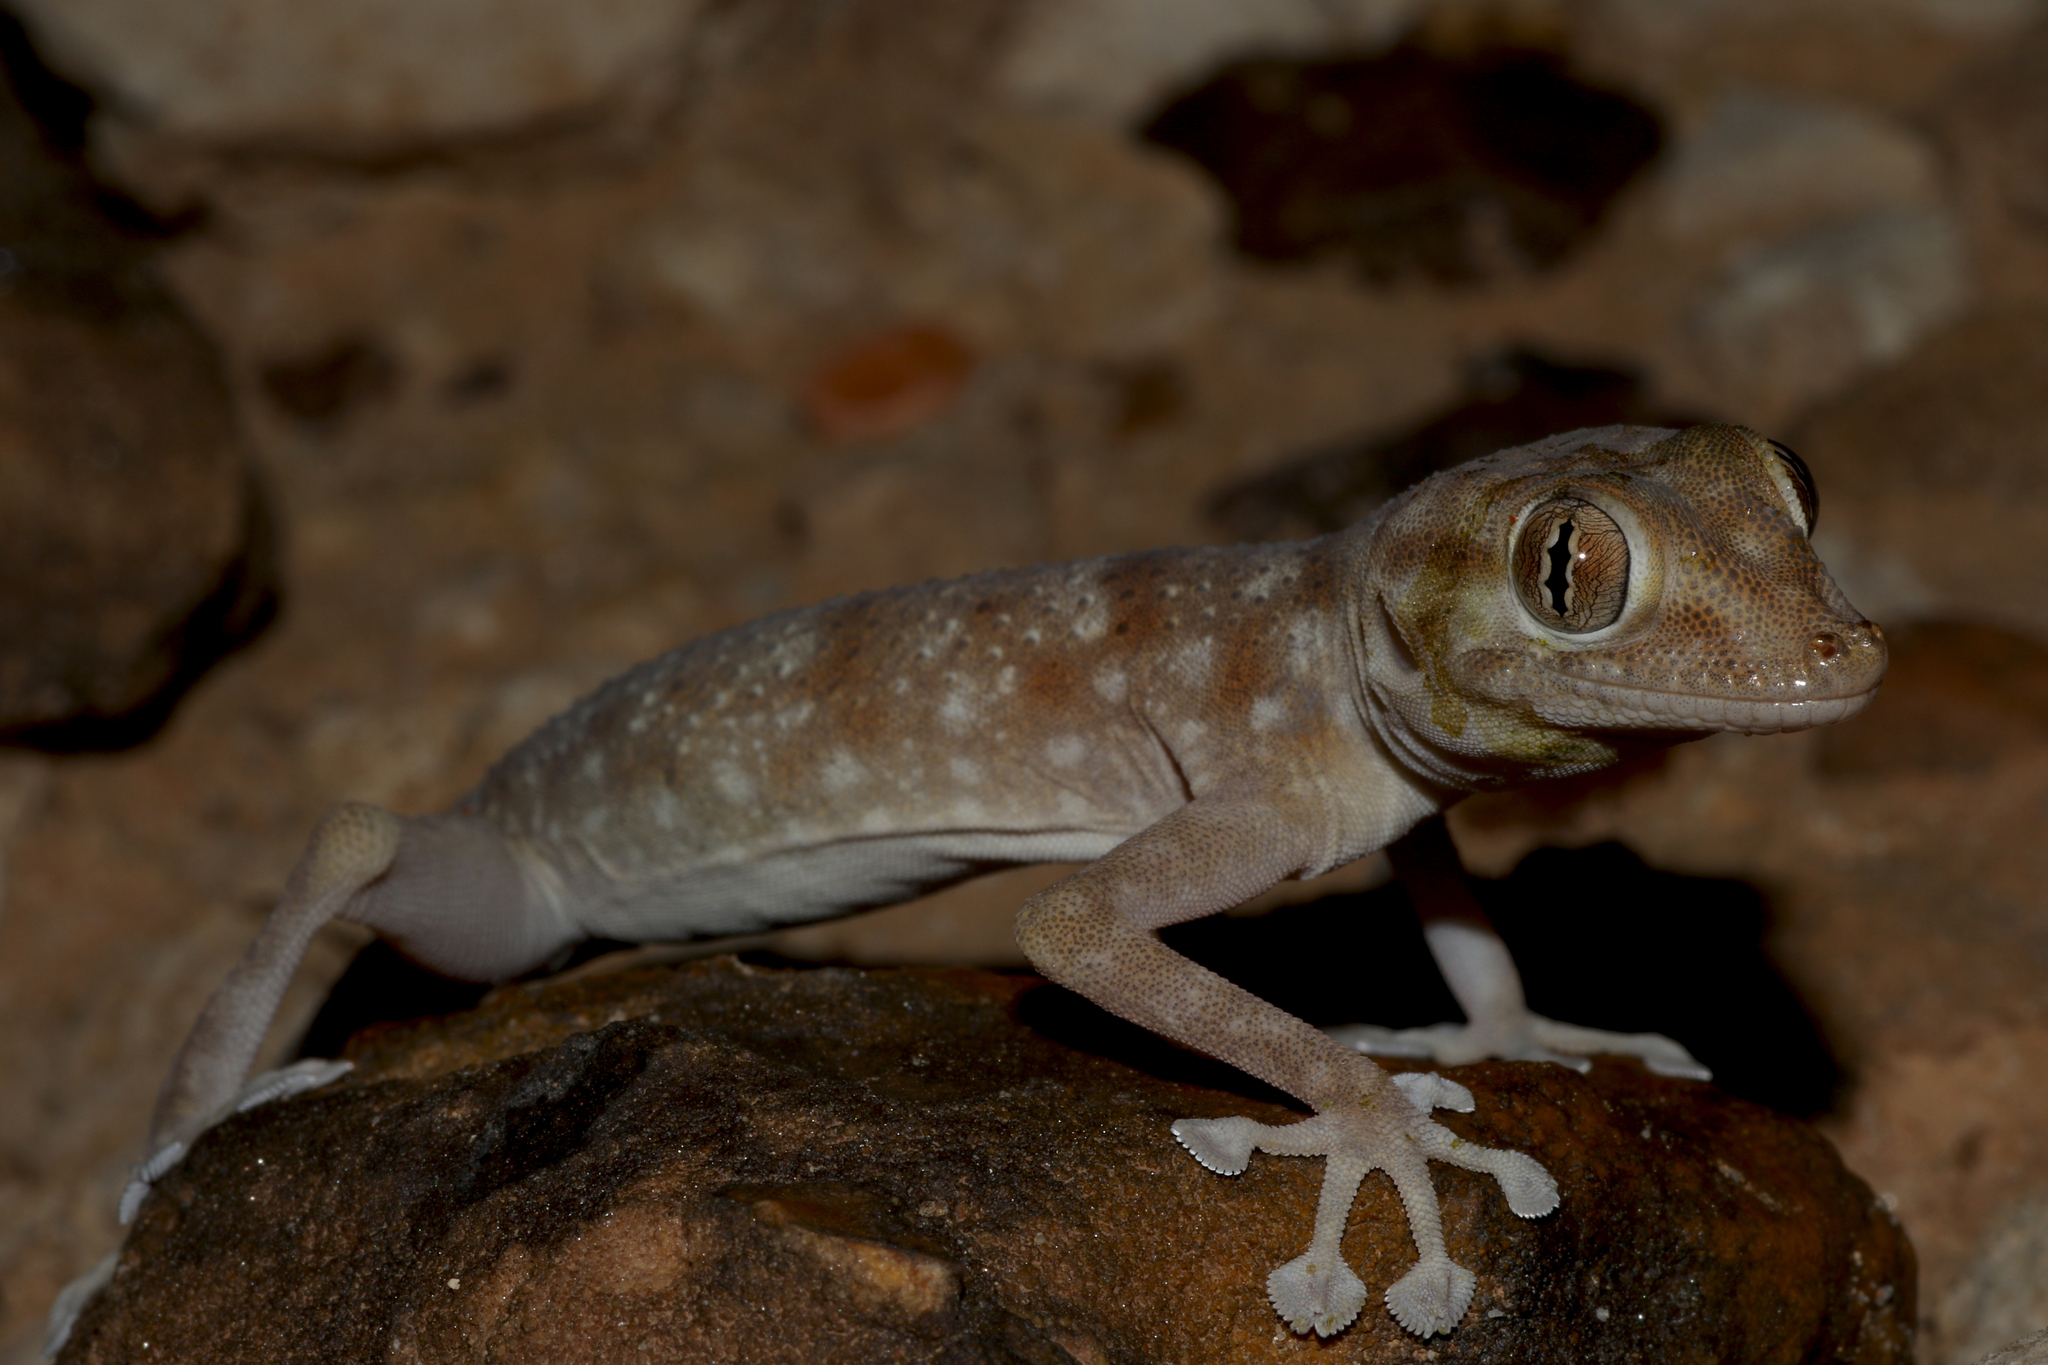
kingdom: Animalia
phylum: Chordata
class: Squamata
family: Phyllodactylidae
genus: Ptyodactylus
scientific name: Ptyodactylus hasselquistii
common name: Hasselquist’s fan-footed gecko
